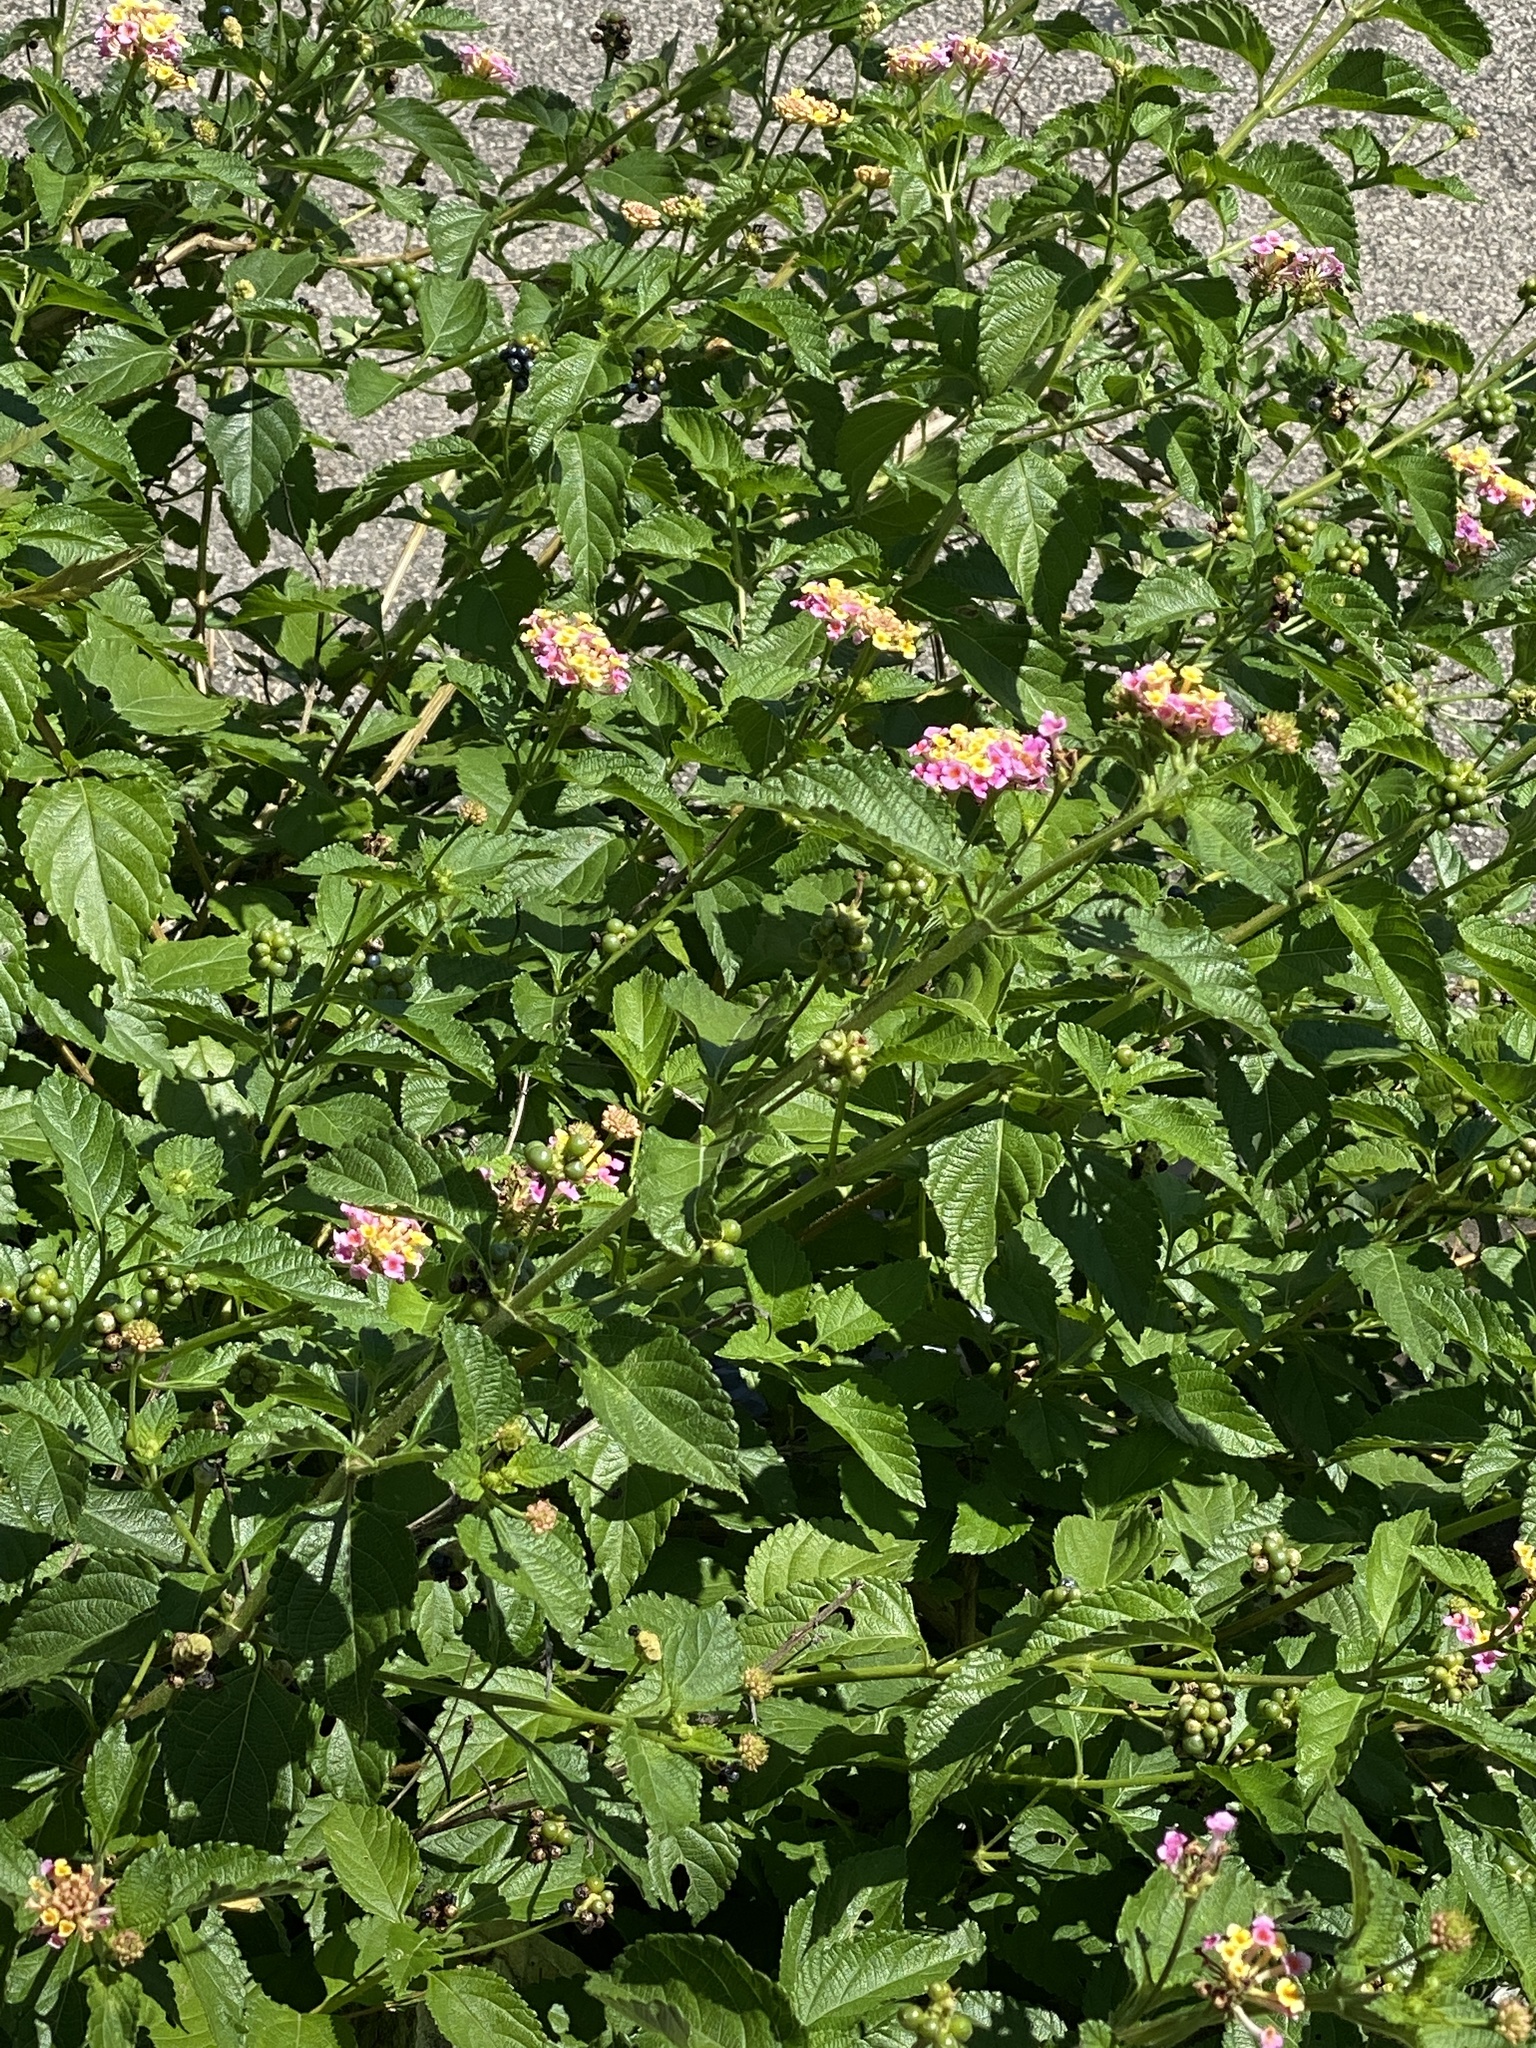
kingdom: Plantae
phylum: Tracheophyta
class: Magnoliopsida
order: Lamiales
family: Verbenaceae
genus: Lantana
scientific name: Lantana strigocamara
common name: Lantana
